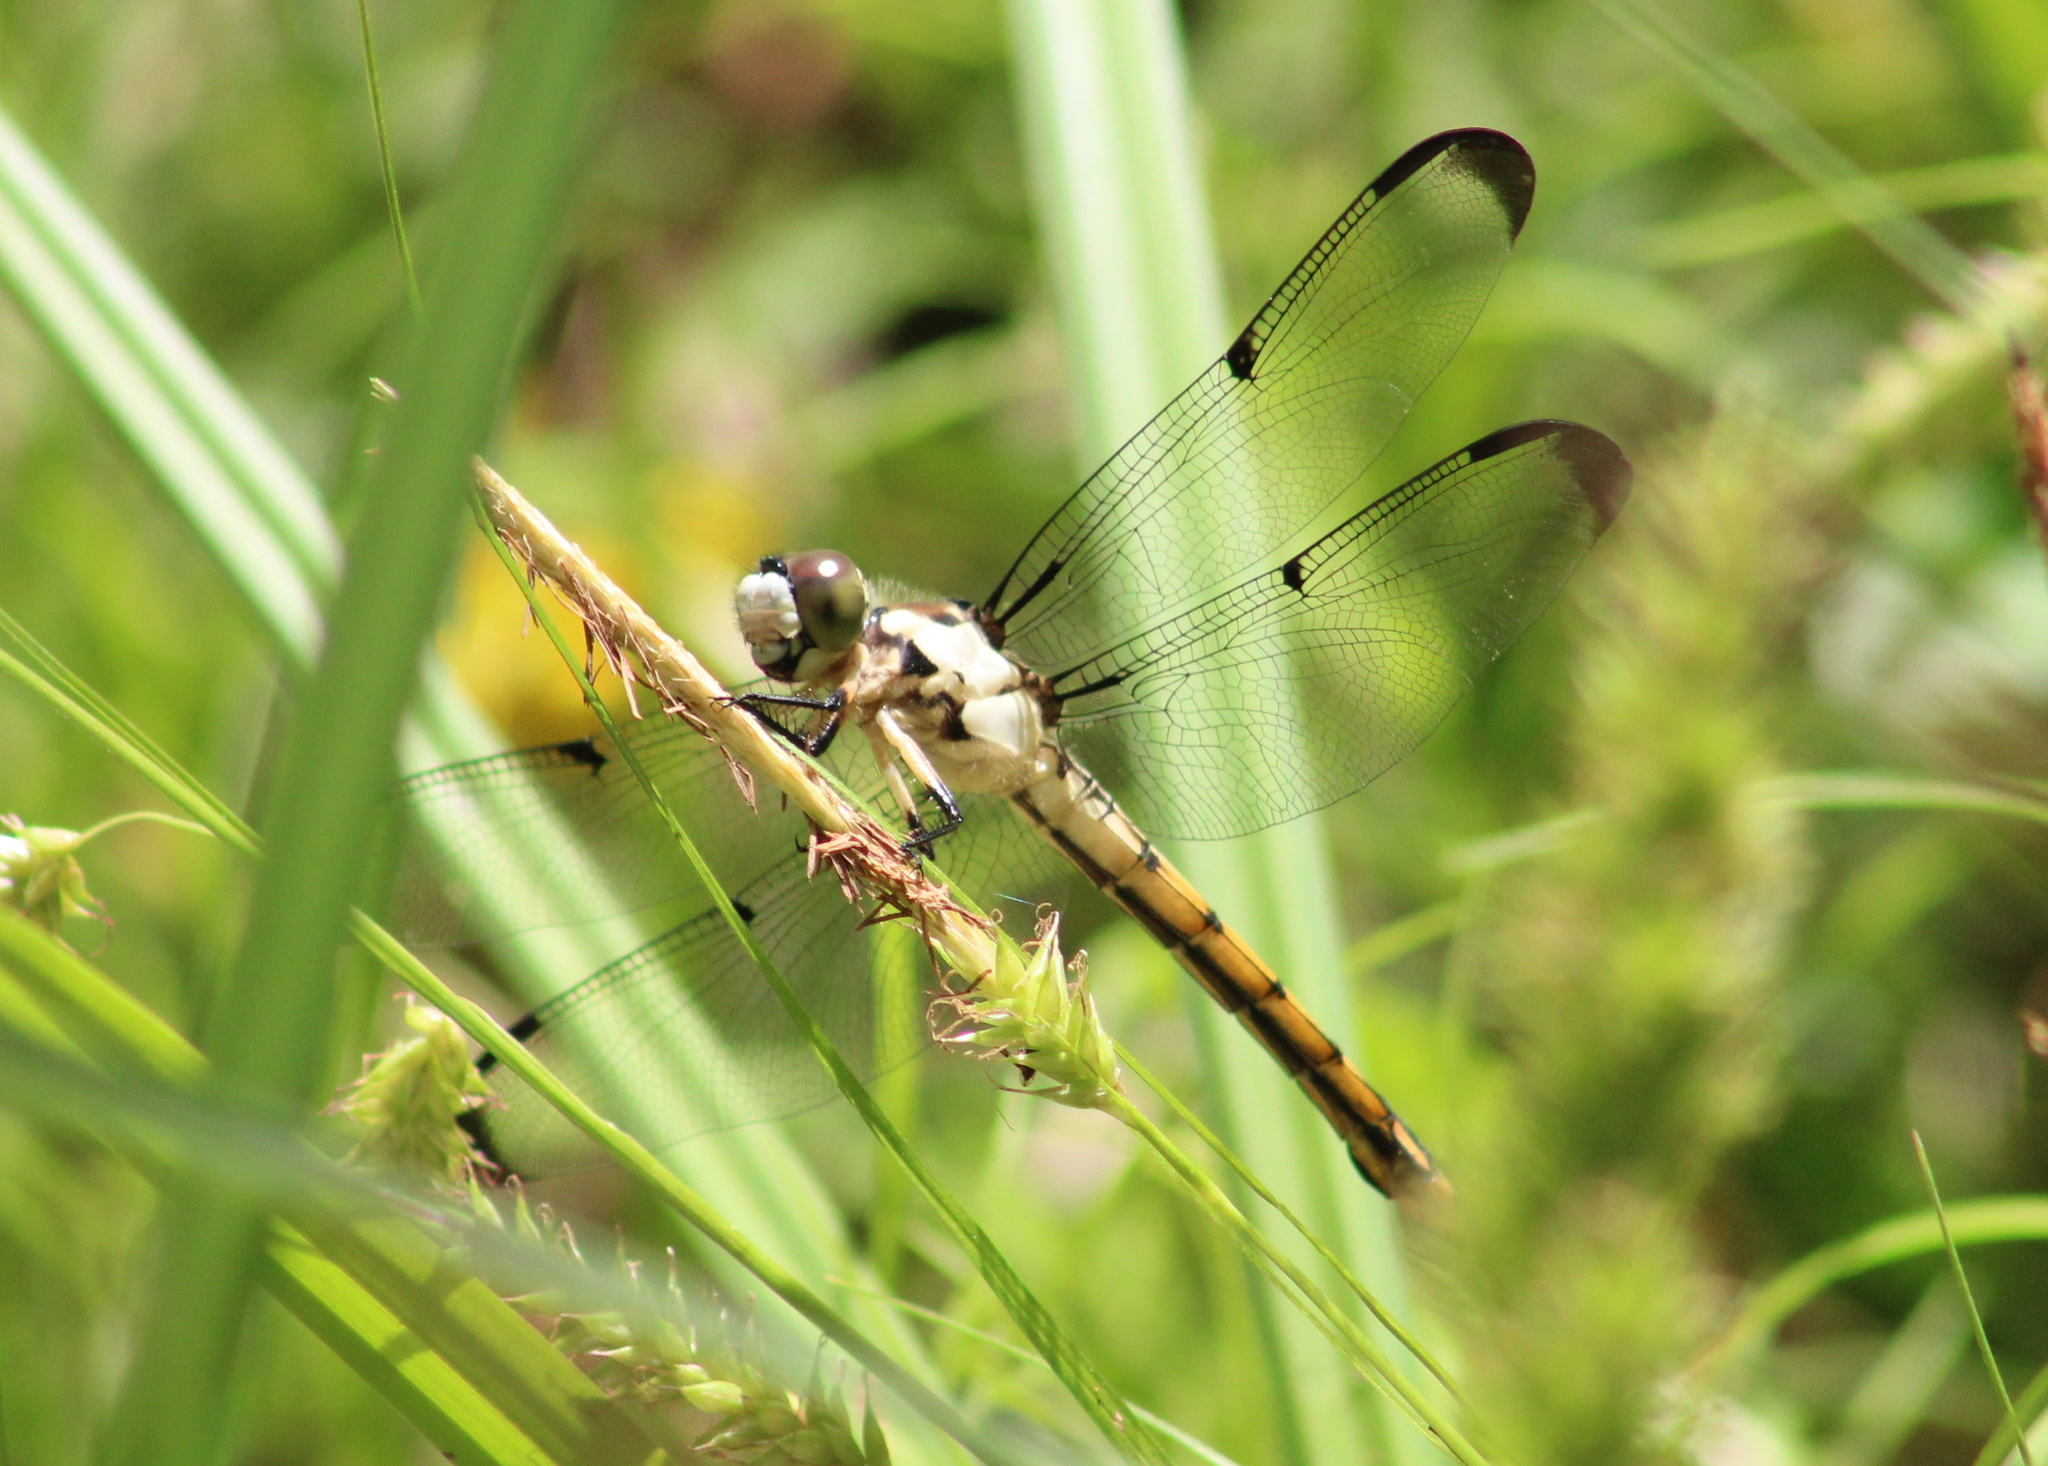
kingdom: Animalia
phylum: Arthropoda
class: Insecta
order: Odonata
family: Libellulidae
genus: Libellula
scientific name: Libellula vibrans
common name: Great blue skimmer
